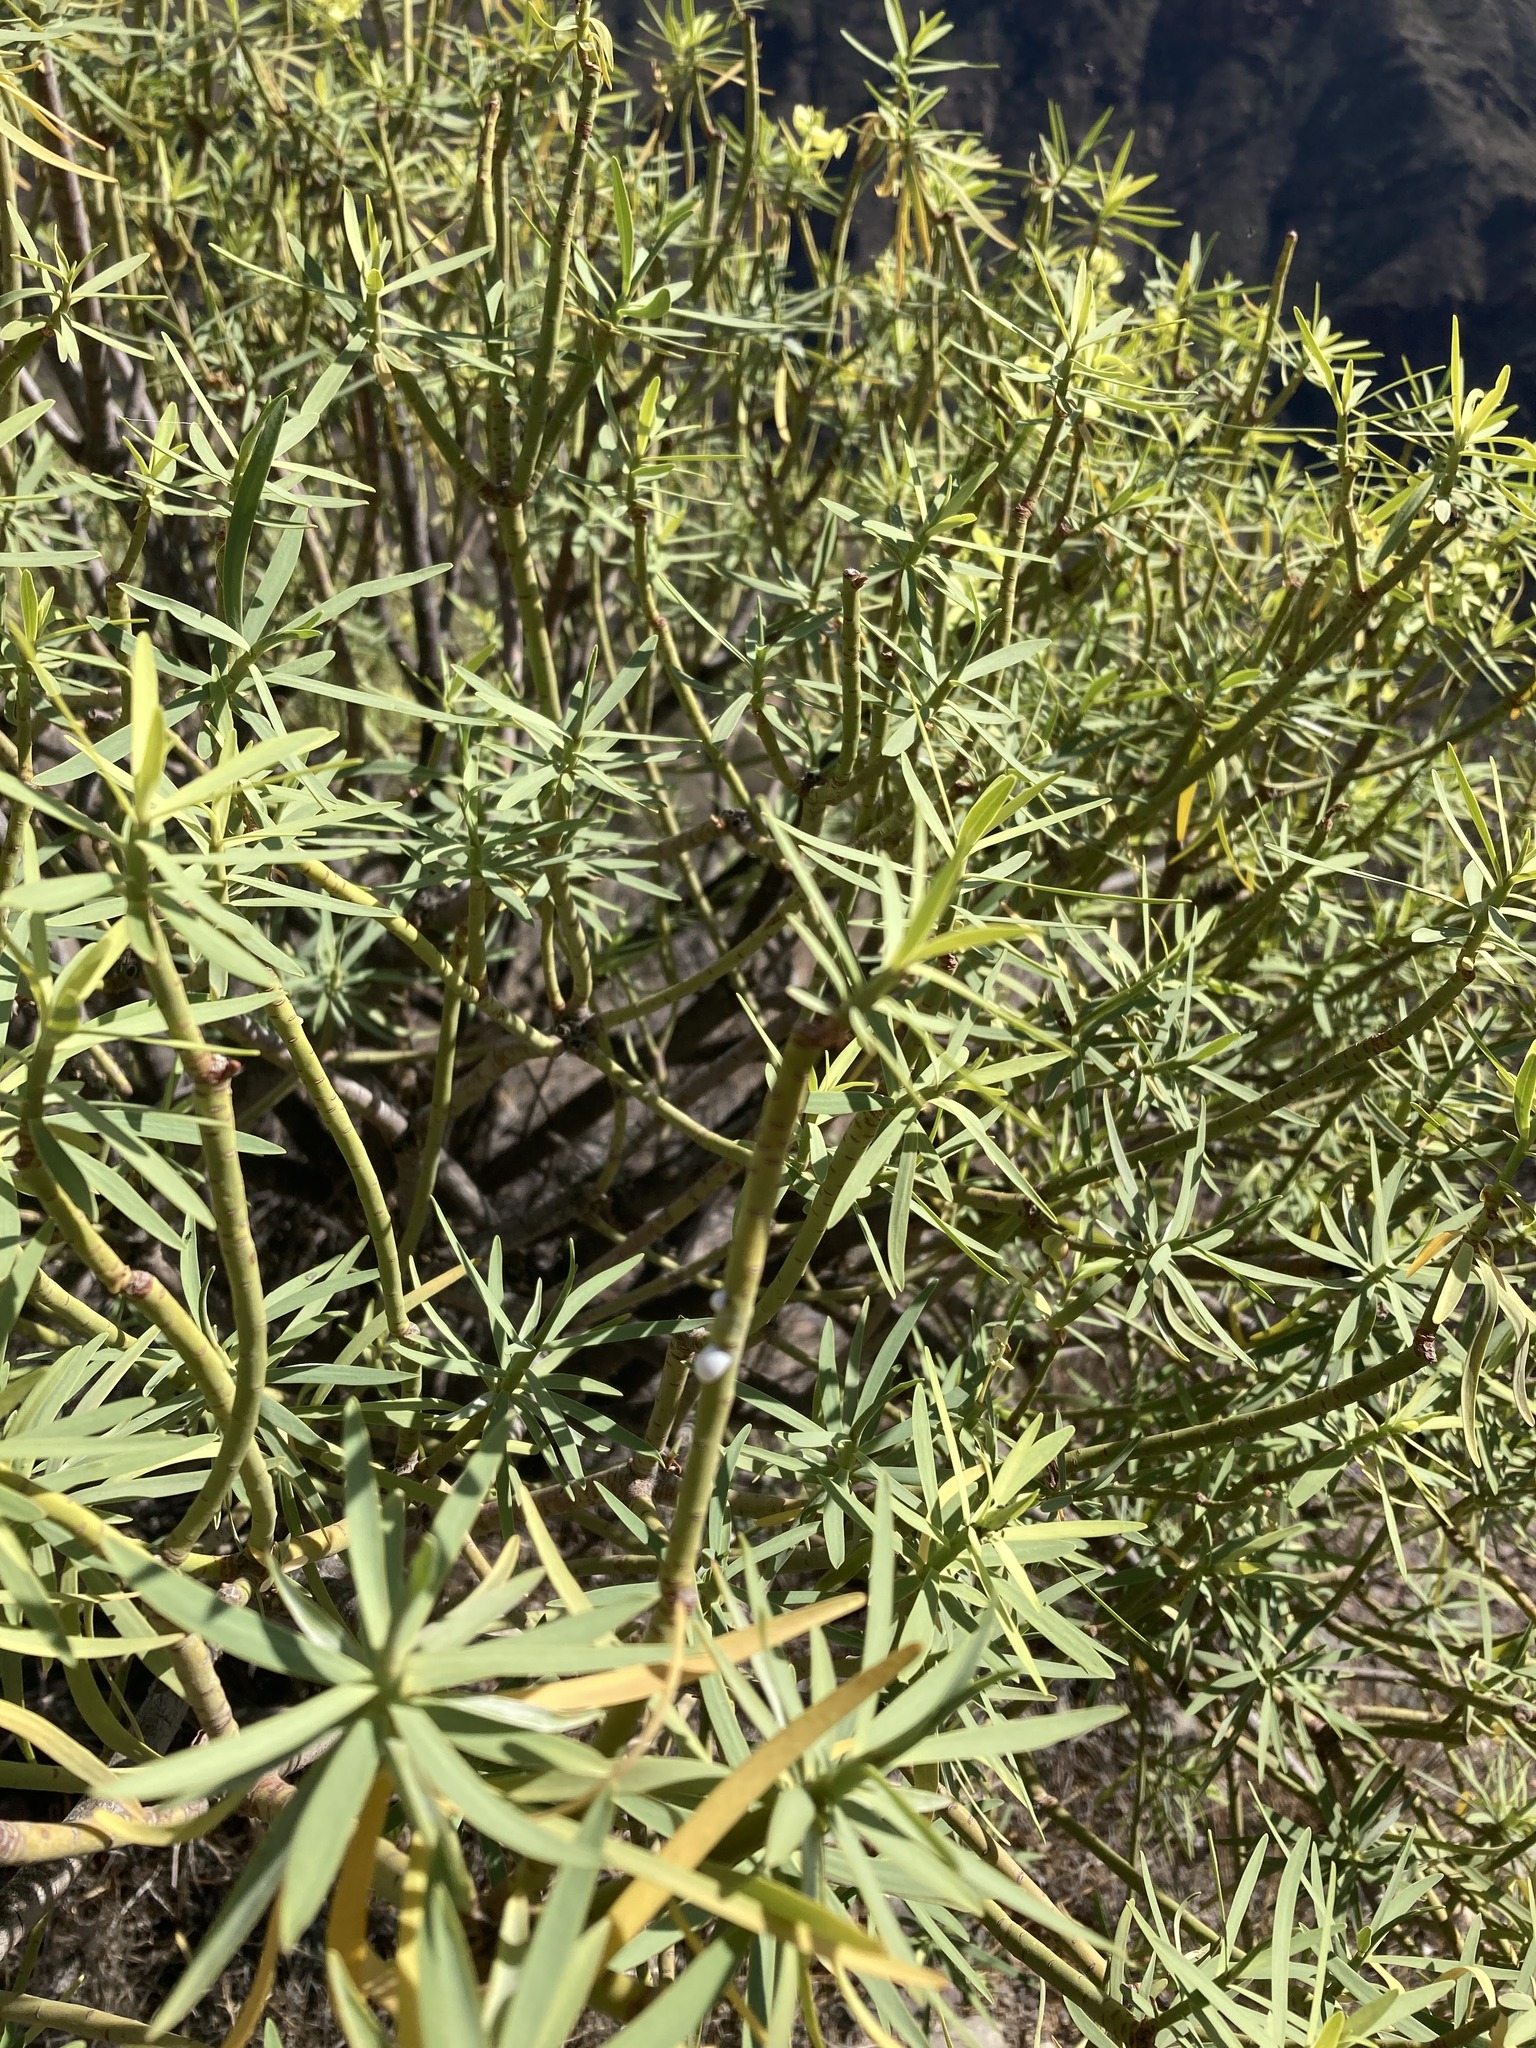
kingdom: Plantae
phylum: Tracheophyta
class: Magnoliopsida
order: Malpighiales
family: Euphorbiaceae
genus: Euphorbia
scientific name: Euphorbia regis-jubae
